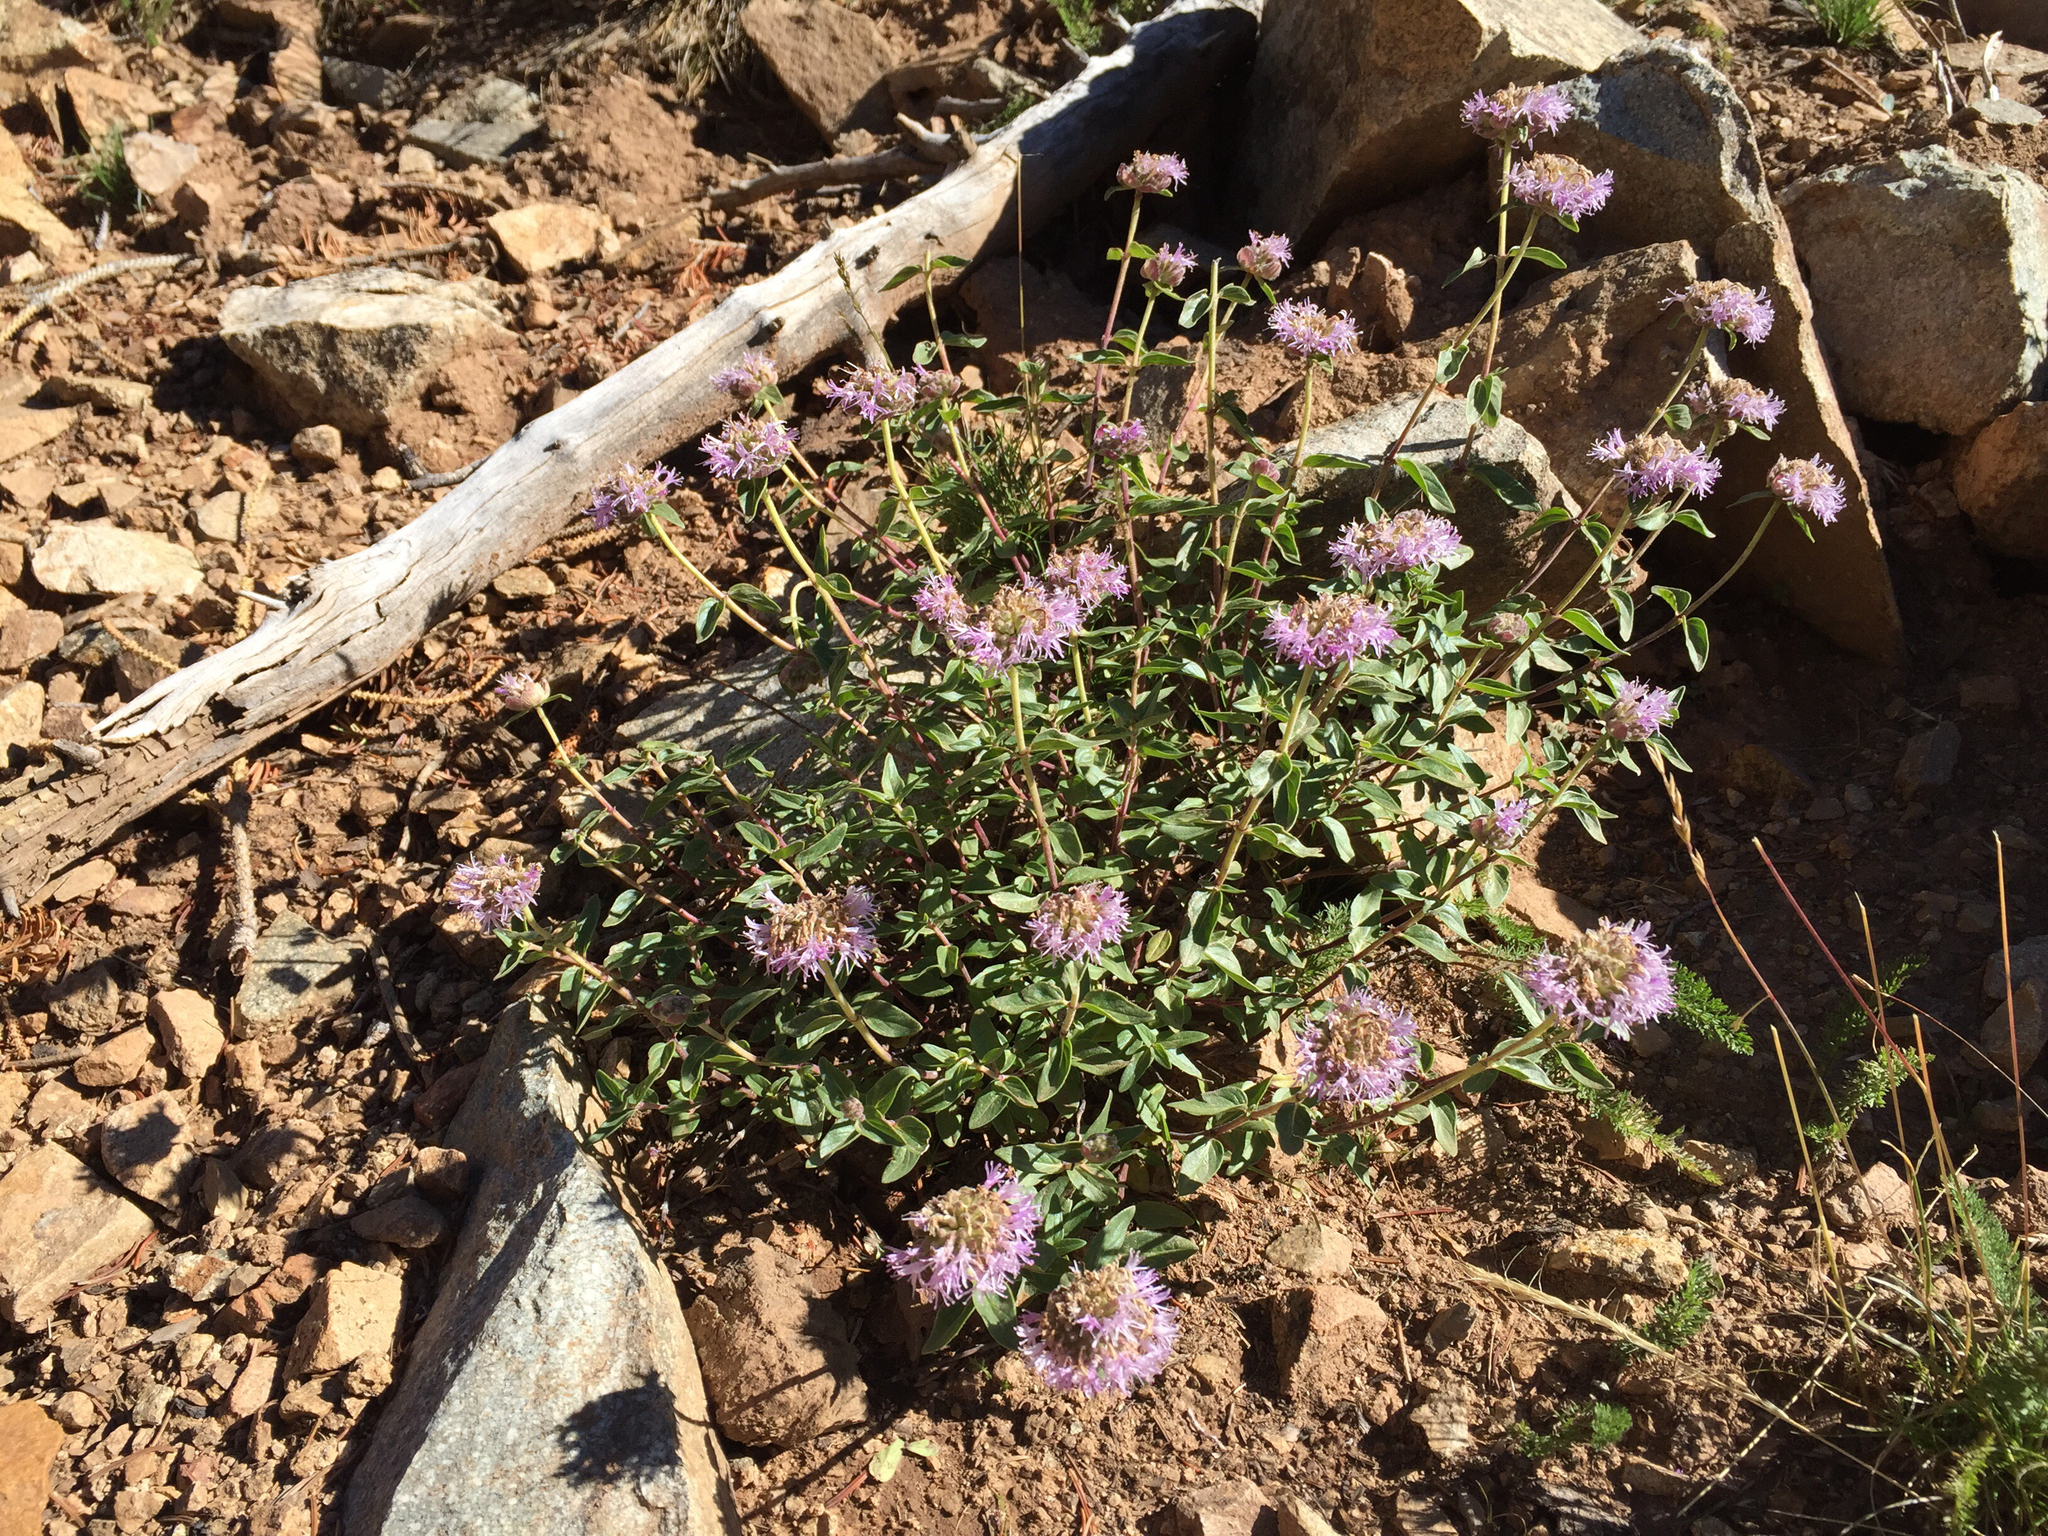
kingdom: Plantae
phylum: Tracheophyta
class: Magnoliopsida
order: Lamiales
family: Lamiaceae
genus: Monardella
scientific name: Monardella odoratissima
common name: Pacific monardella
